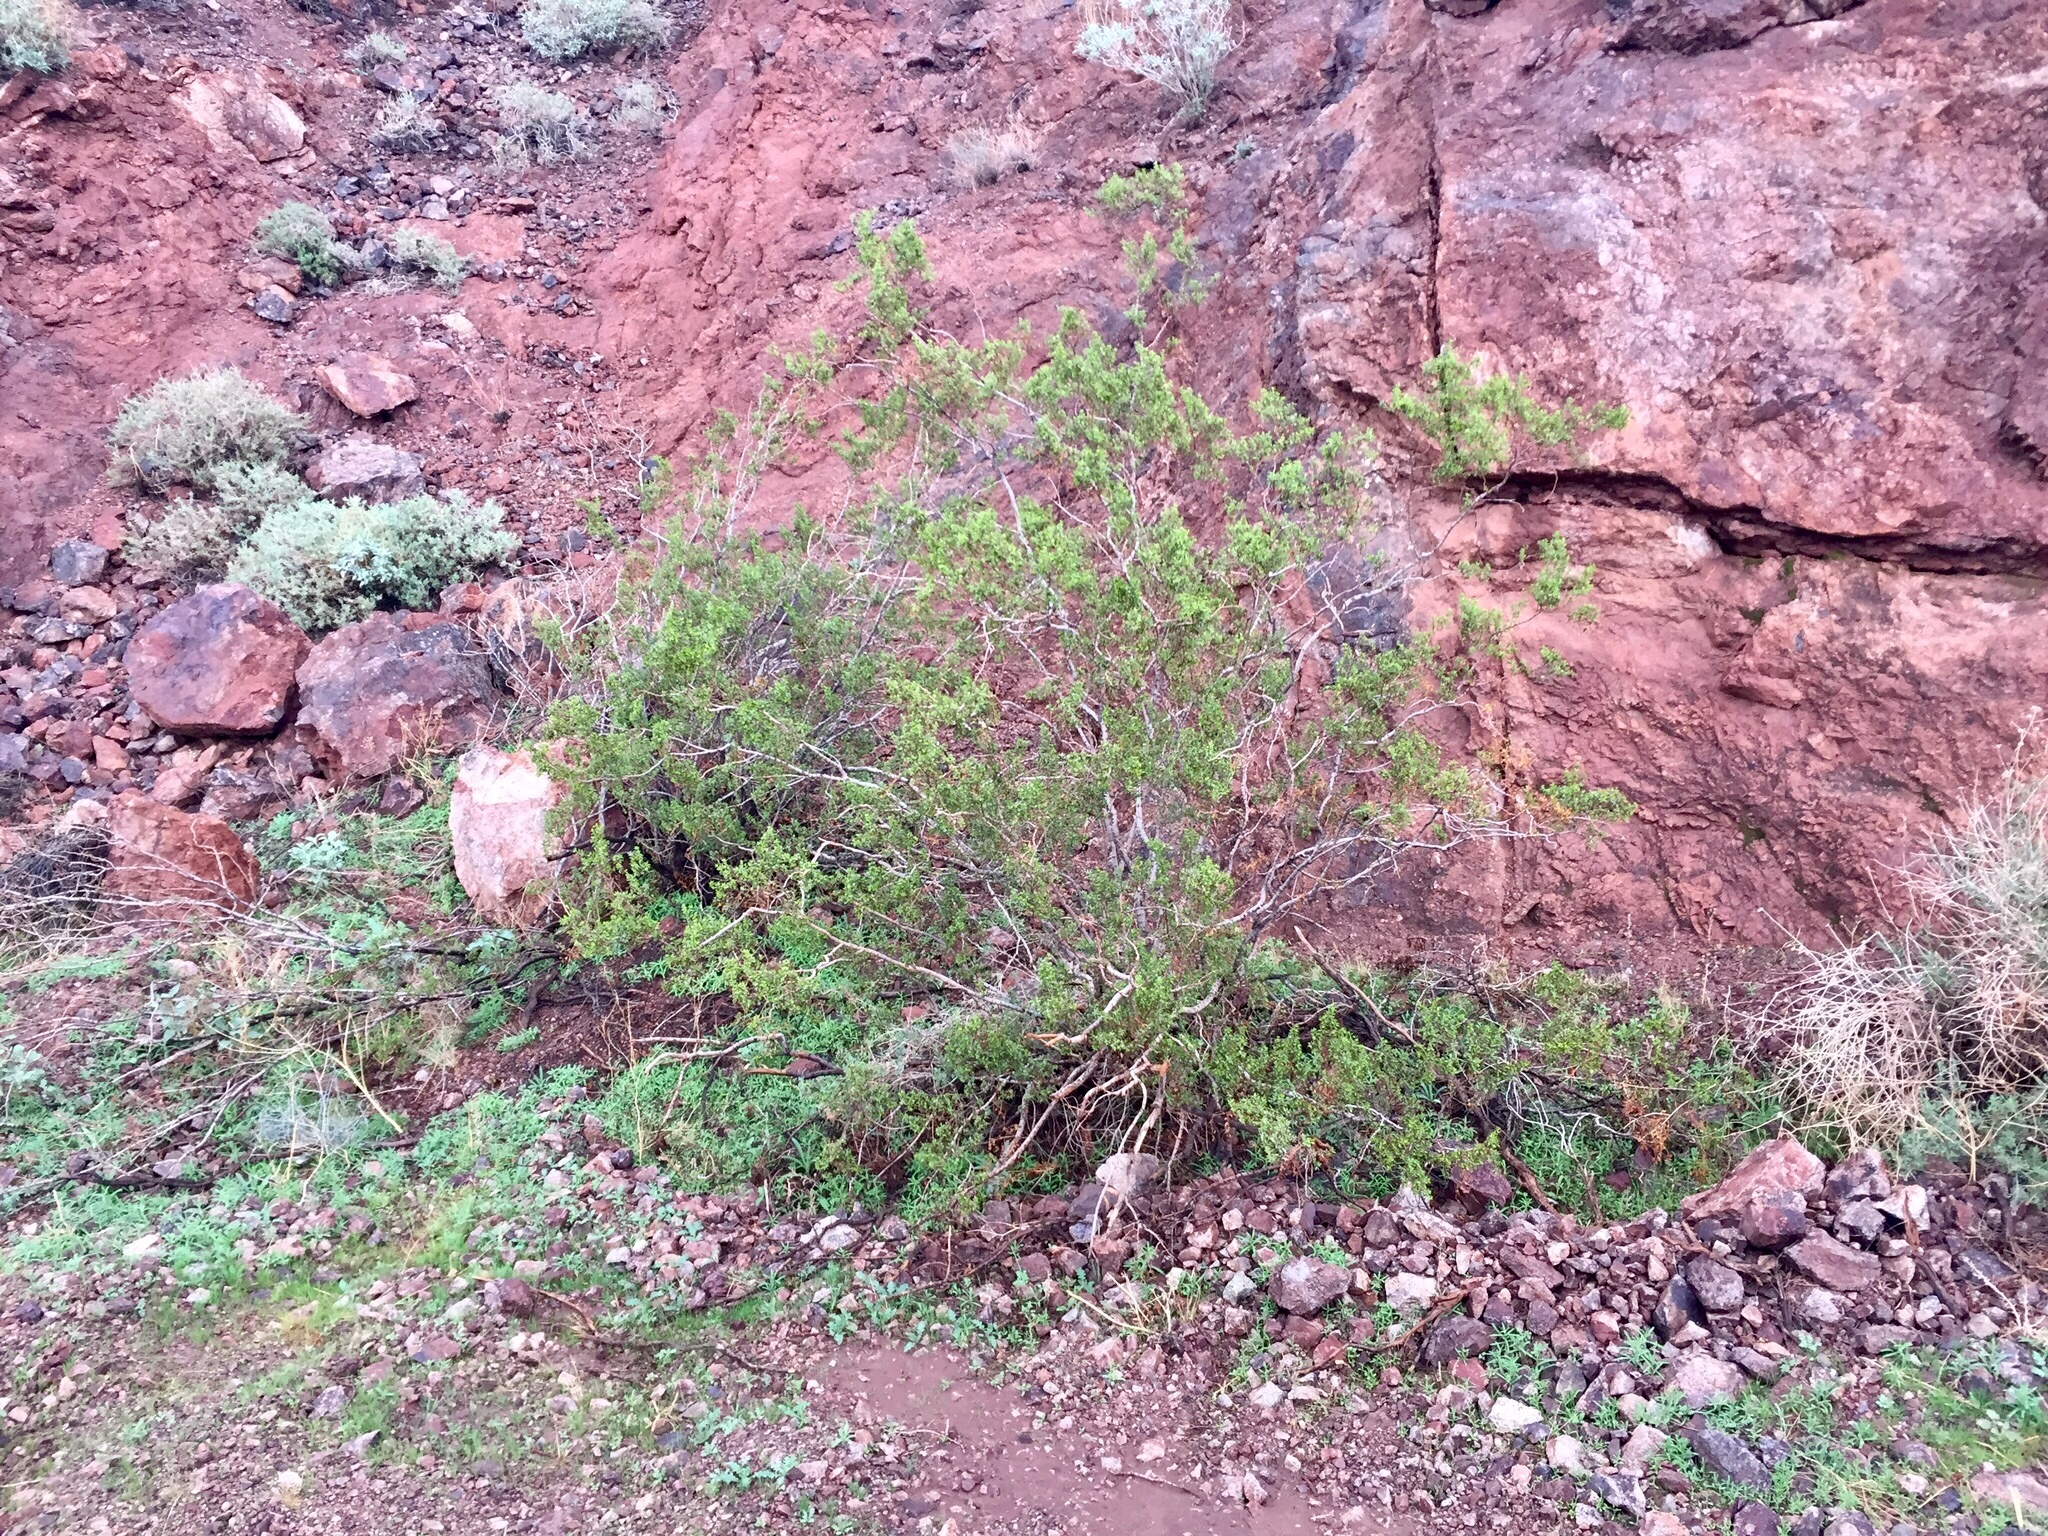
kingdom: Plantae
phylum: Tracheophyta
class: Magnoliopsida
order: Zygophyllales
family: Zygophyllaceae
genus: Larrea
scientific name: Larrea tridentata
